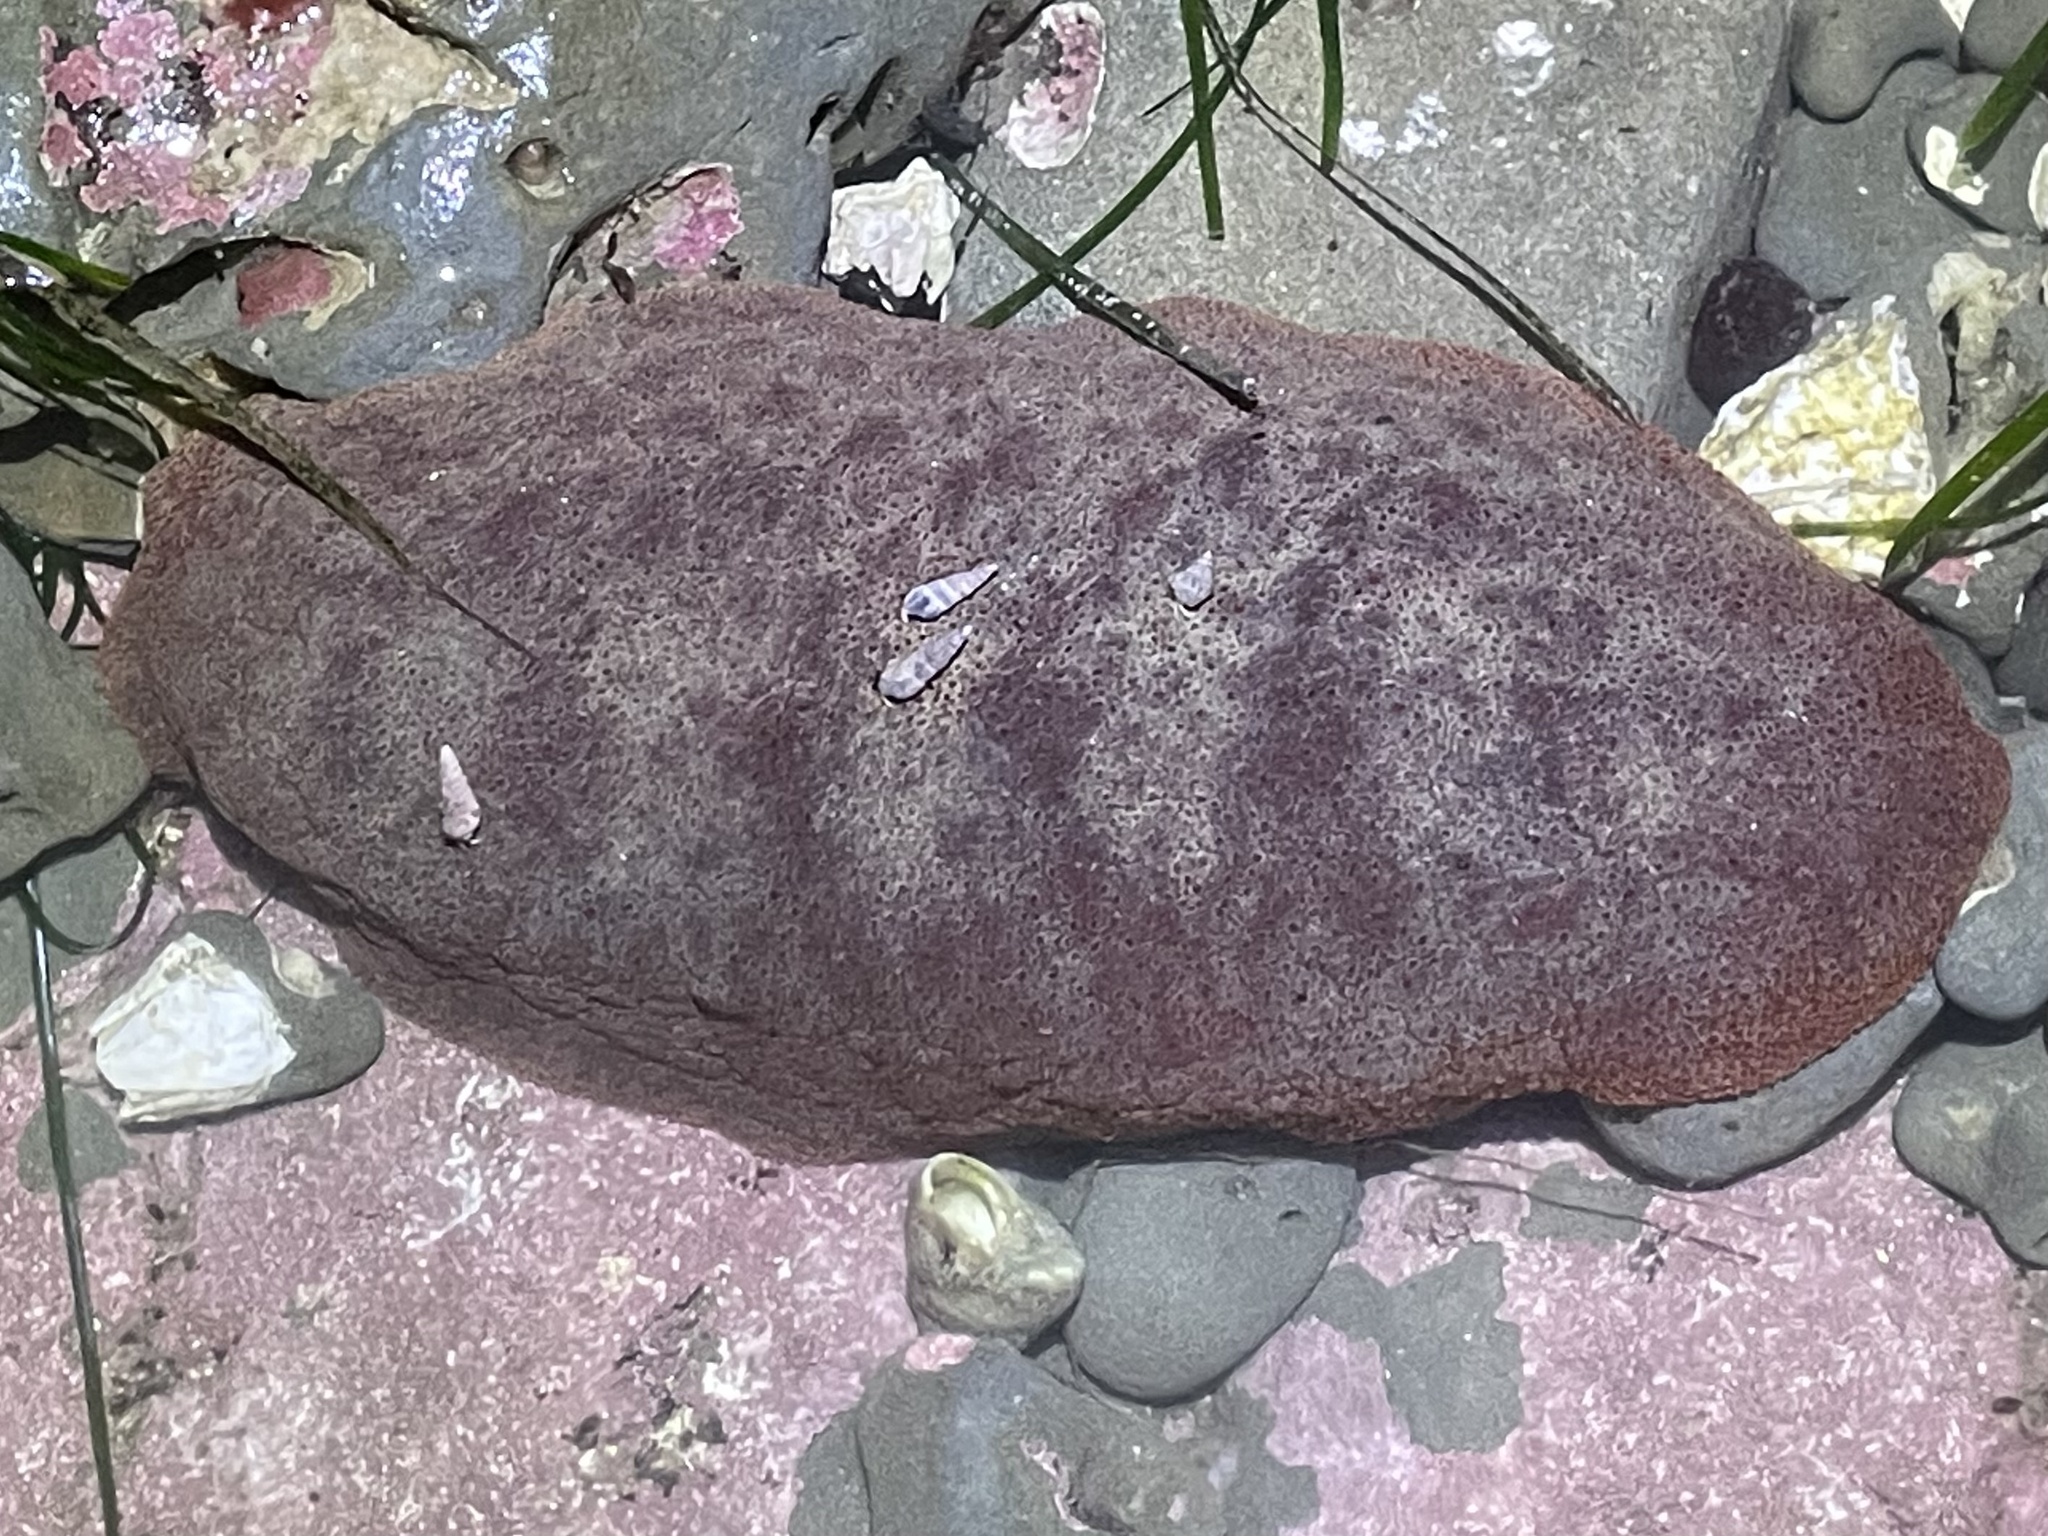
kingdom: Animalia
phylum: Mollusca
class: Polyplacophora
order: Chitonida
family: Acanthochitonidae
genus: Cryptochiton
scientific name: Cryptochiton stelleri
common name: Giant pacific chiton
